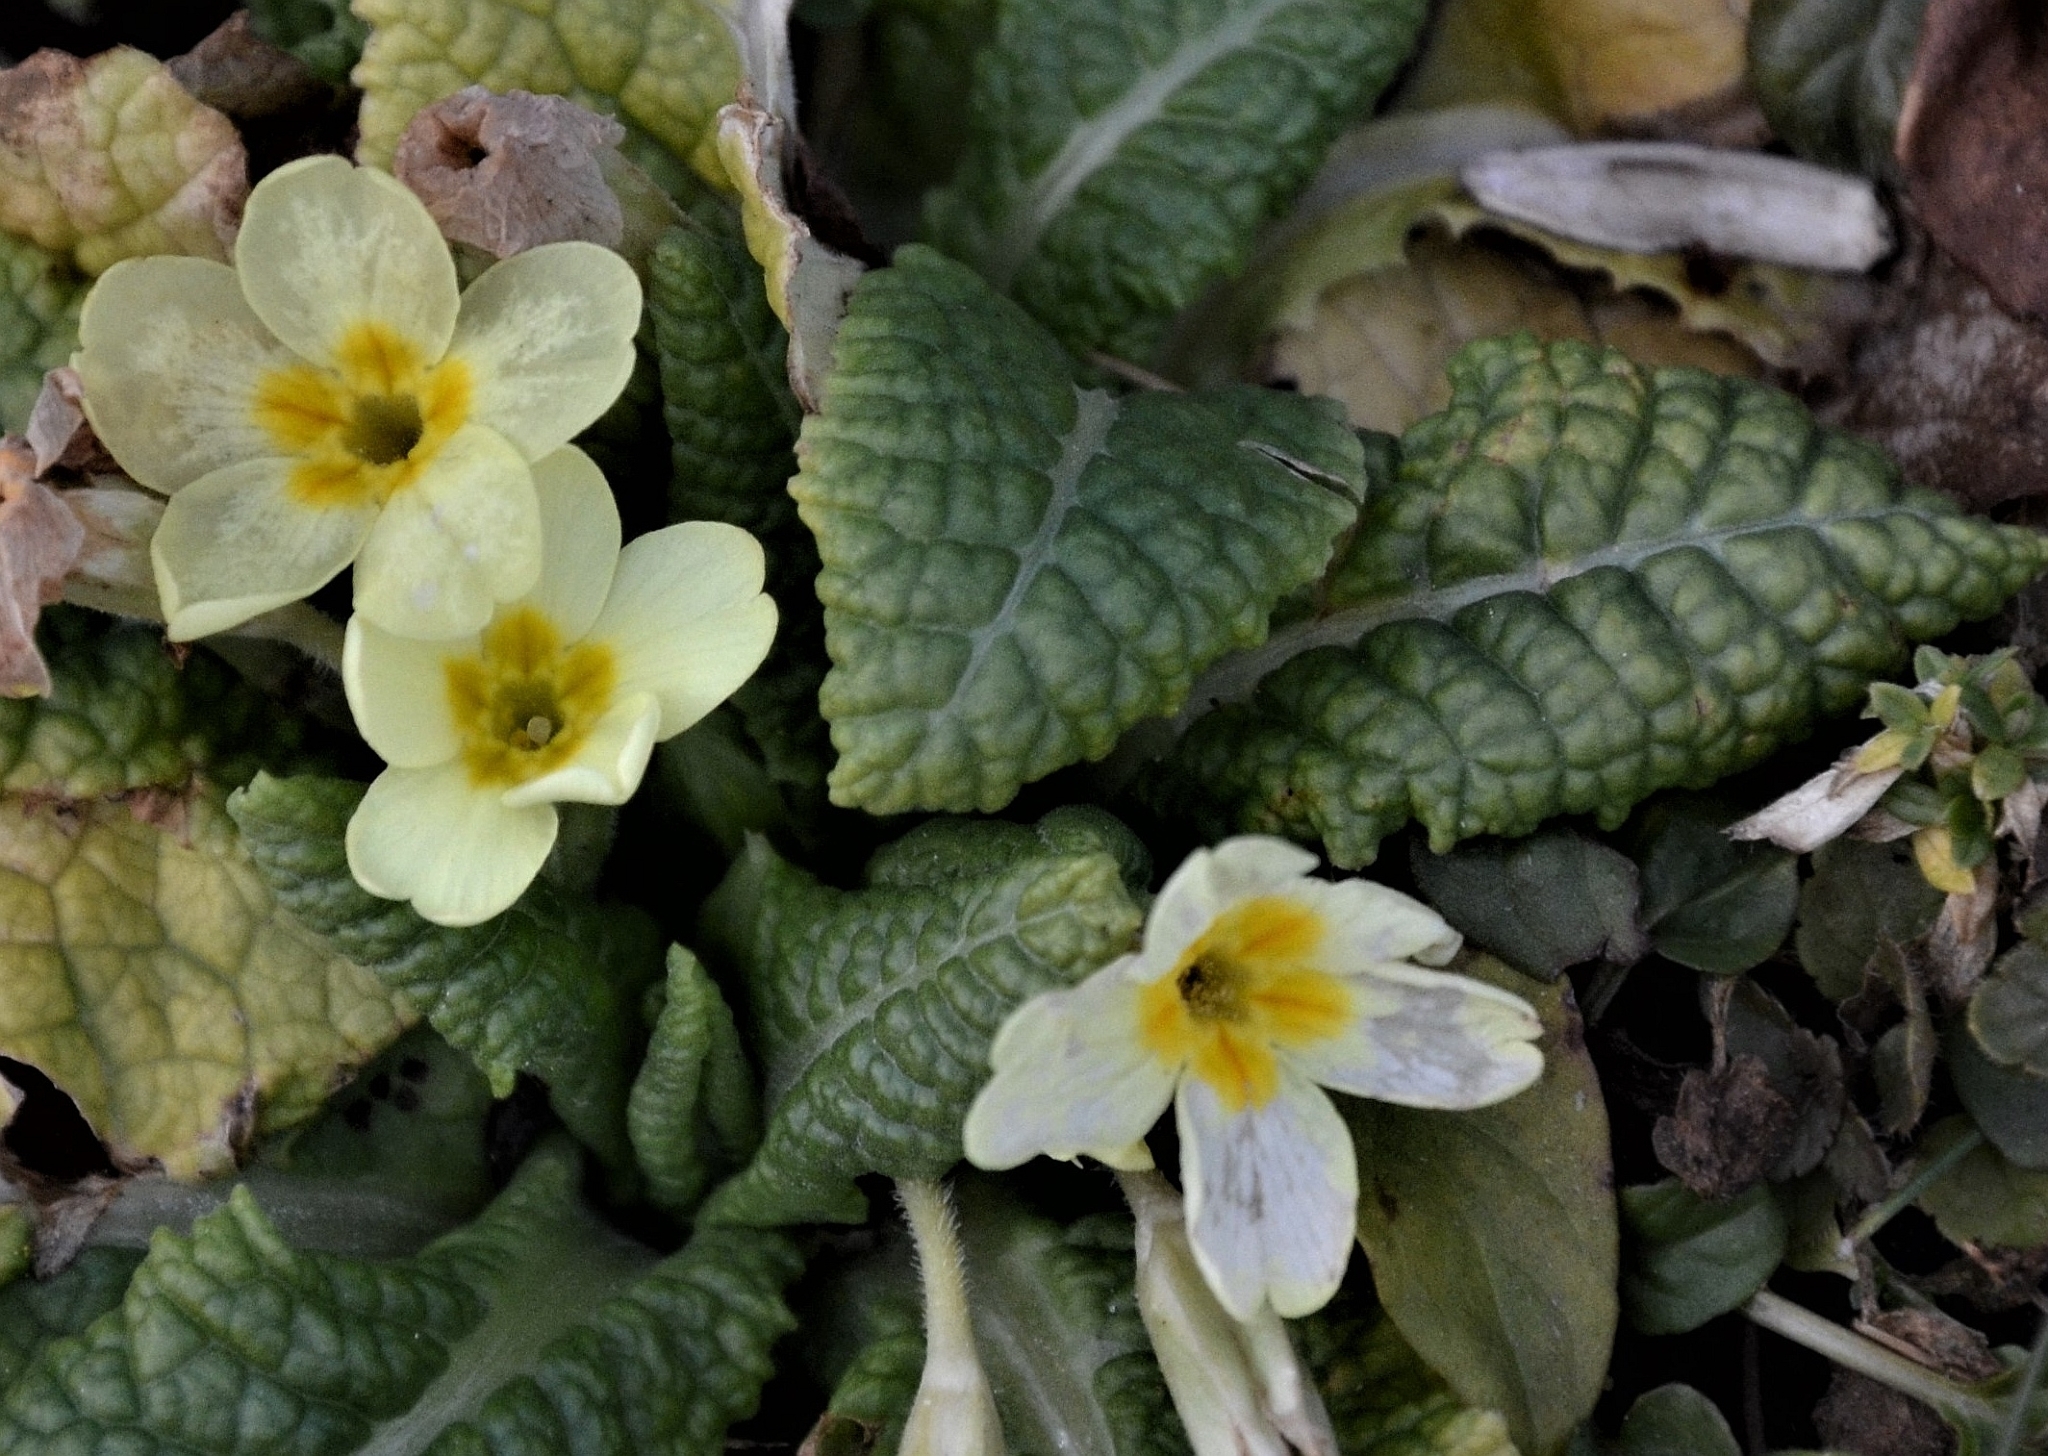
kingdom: Plantae
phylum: Tracheophyta
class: Magnoliopsida
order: Ericales
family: Primulaceae
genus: Primula
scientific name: Primula vulgaris
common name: Primrose
